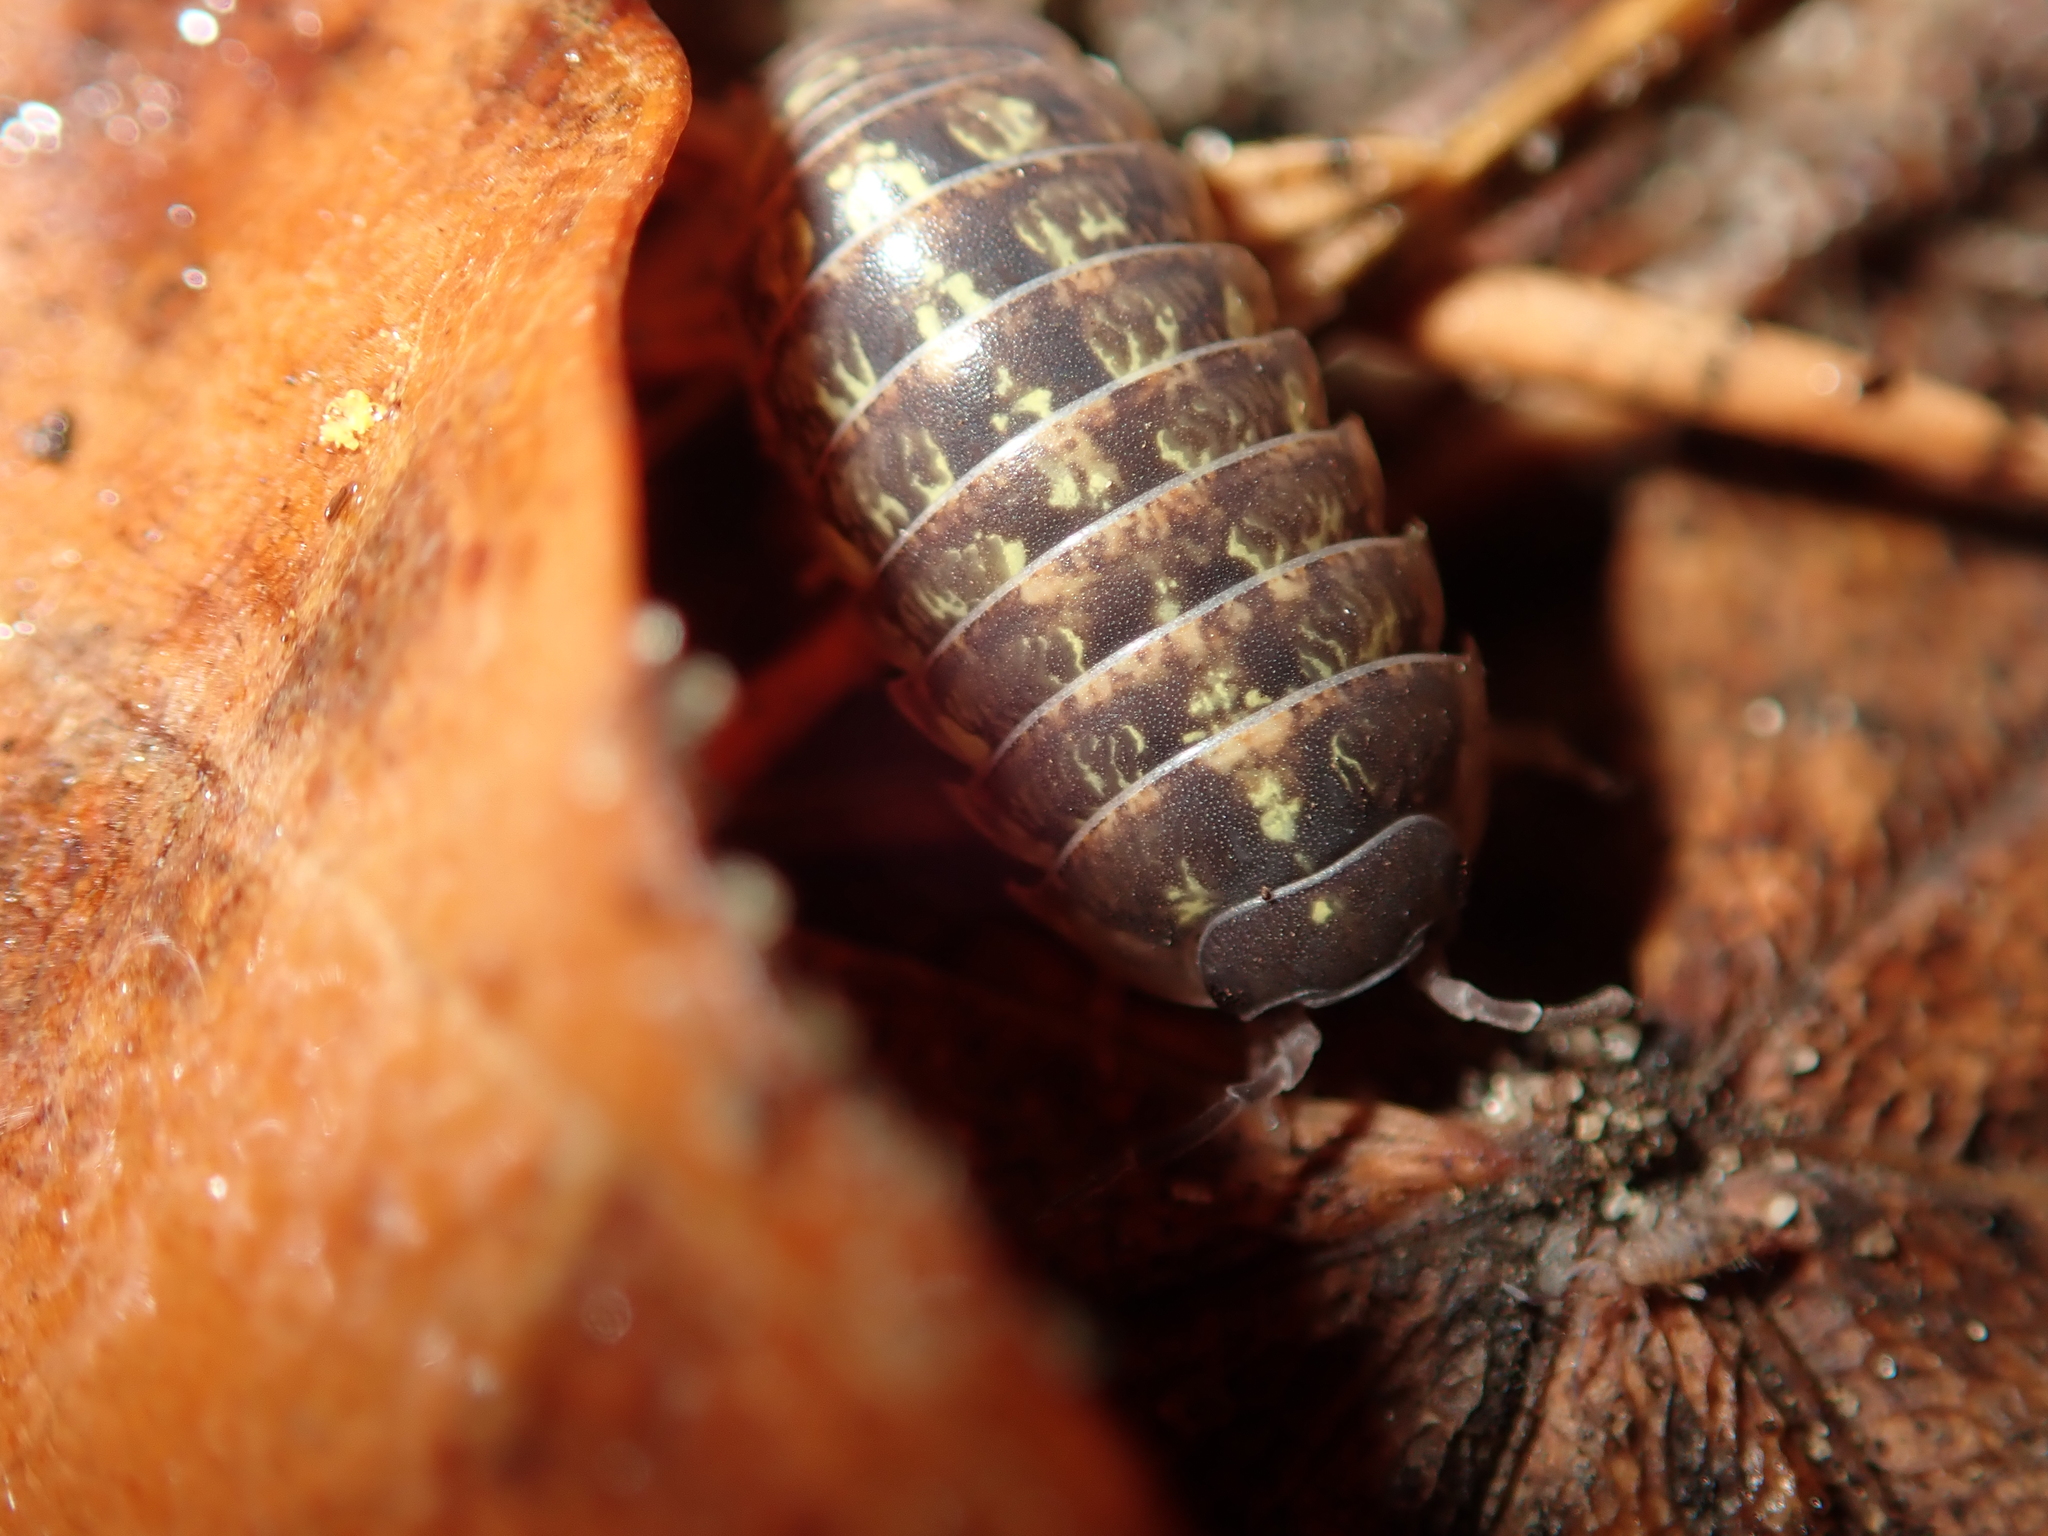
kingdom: Animalia
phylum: Arthropoda
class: Malacostraca
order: Isopoda
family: Armadillidiidae
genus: Armadillidium
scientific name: Armadillidium vulgare
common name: Common pill woodlouse
